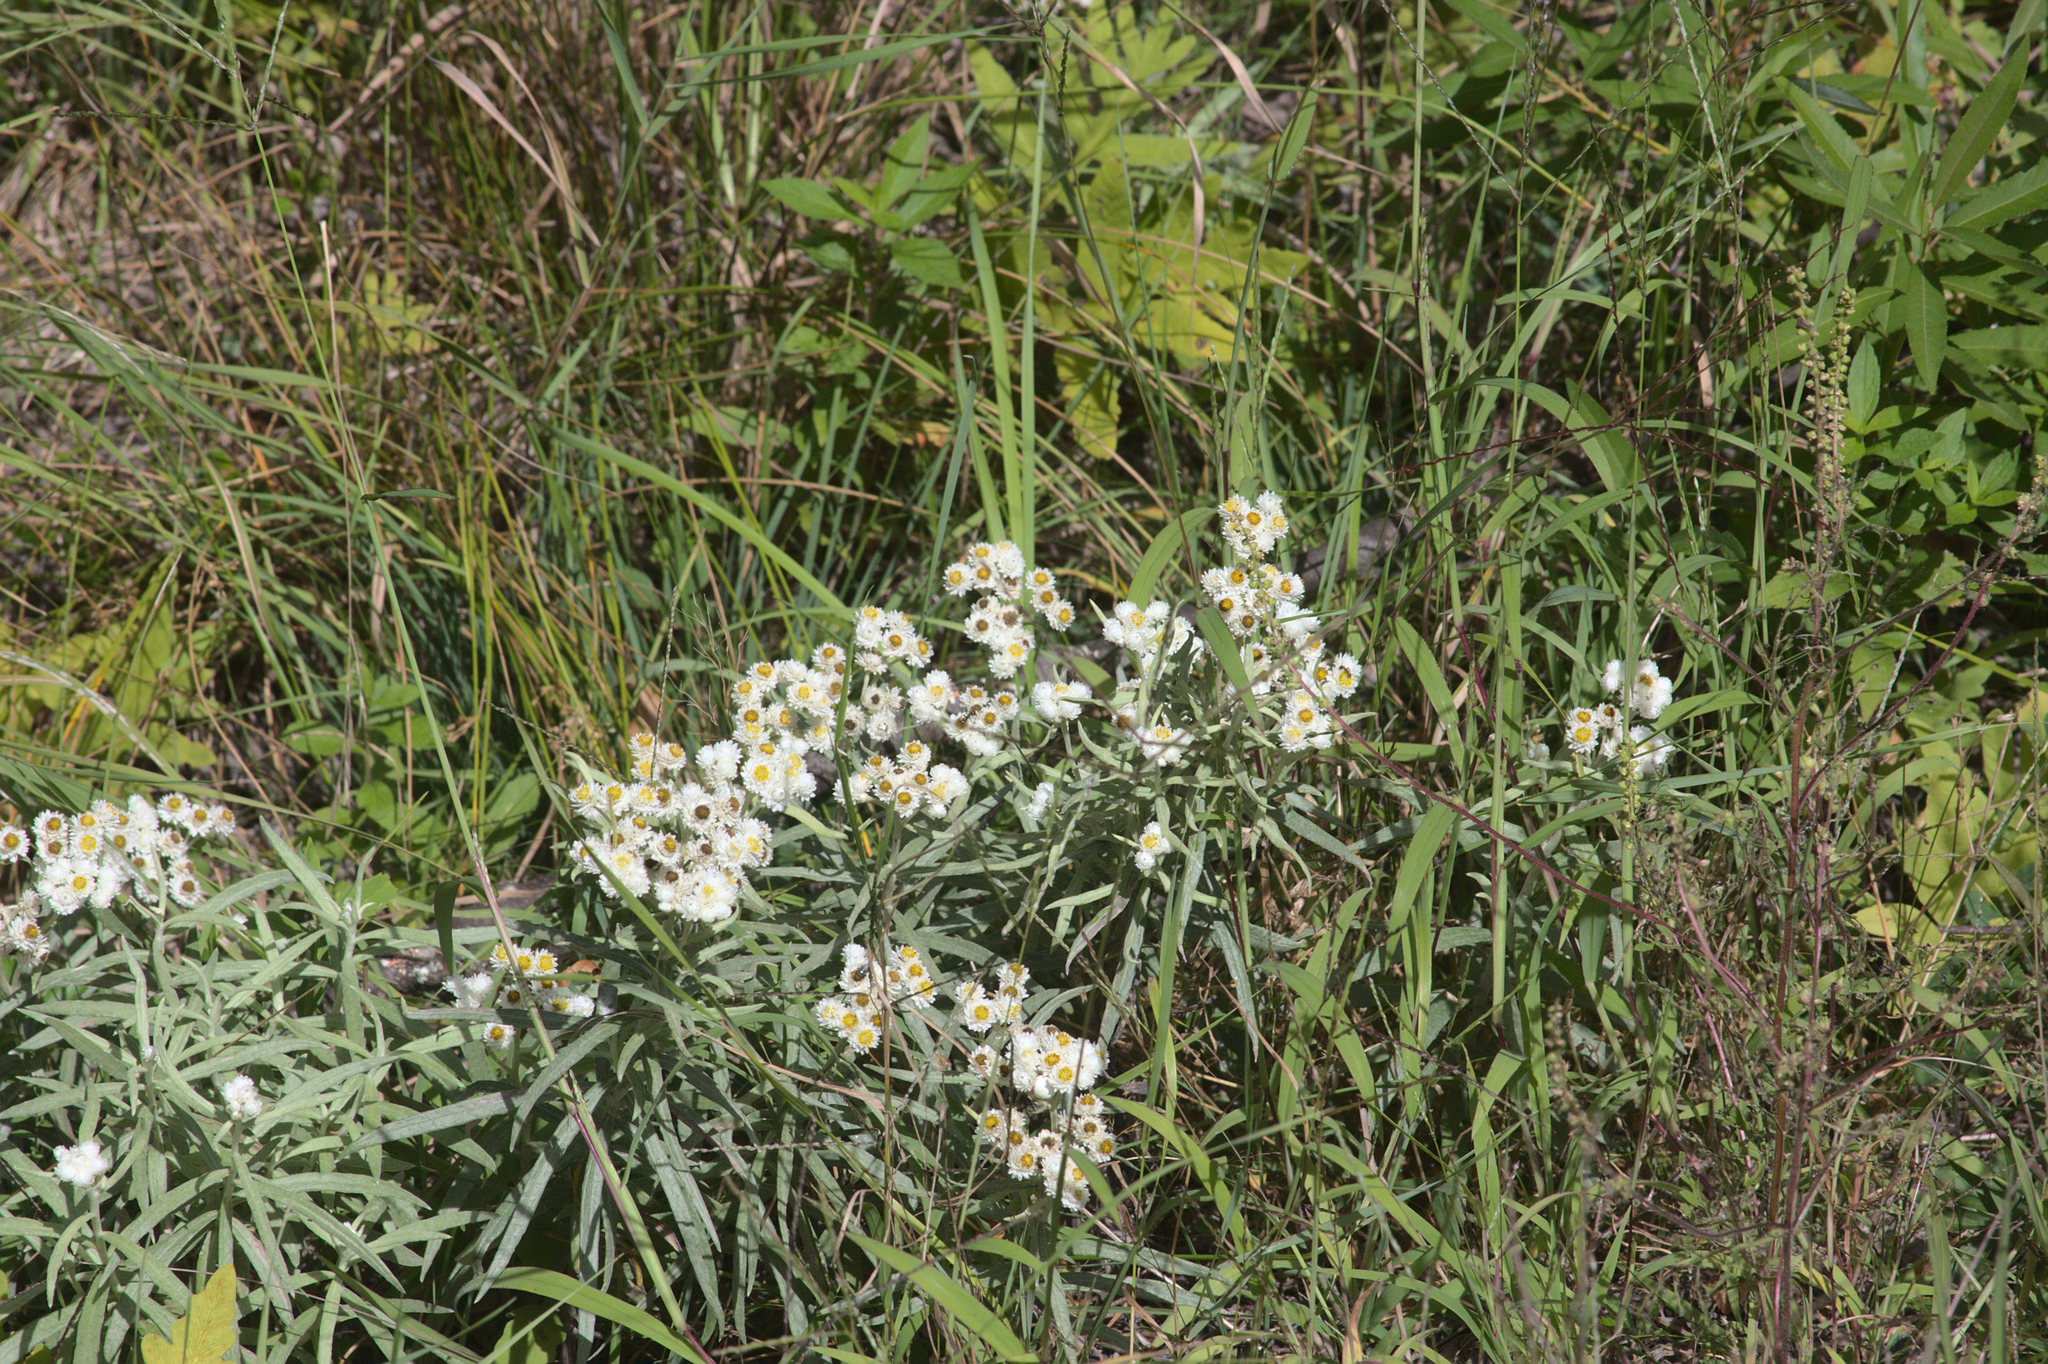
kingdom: Plantae
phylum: Tracheophyta
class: Magnoliopsida
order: Asterales
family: Asteraceae
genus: Anaphalis
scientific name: Anaphalis margaritacea
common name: Pearly everlasting
